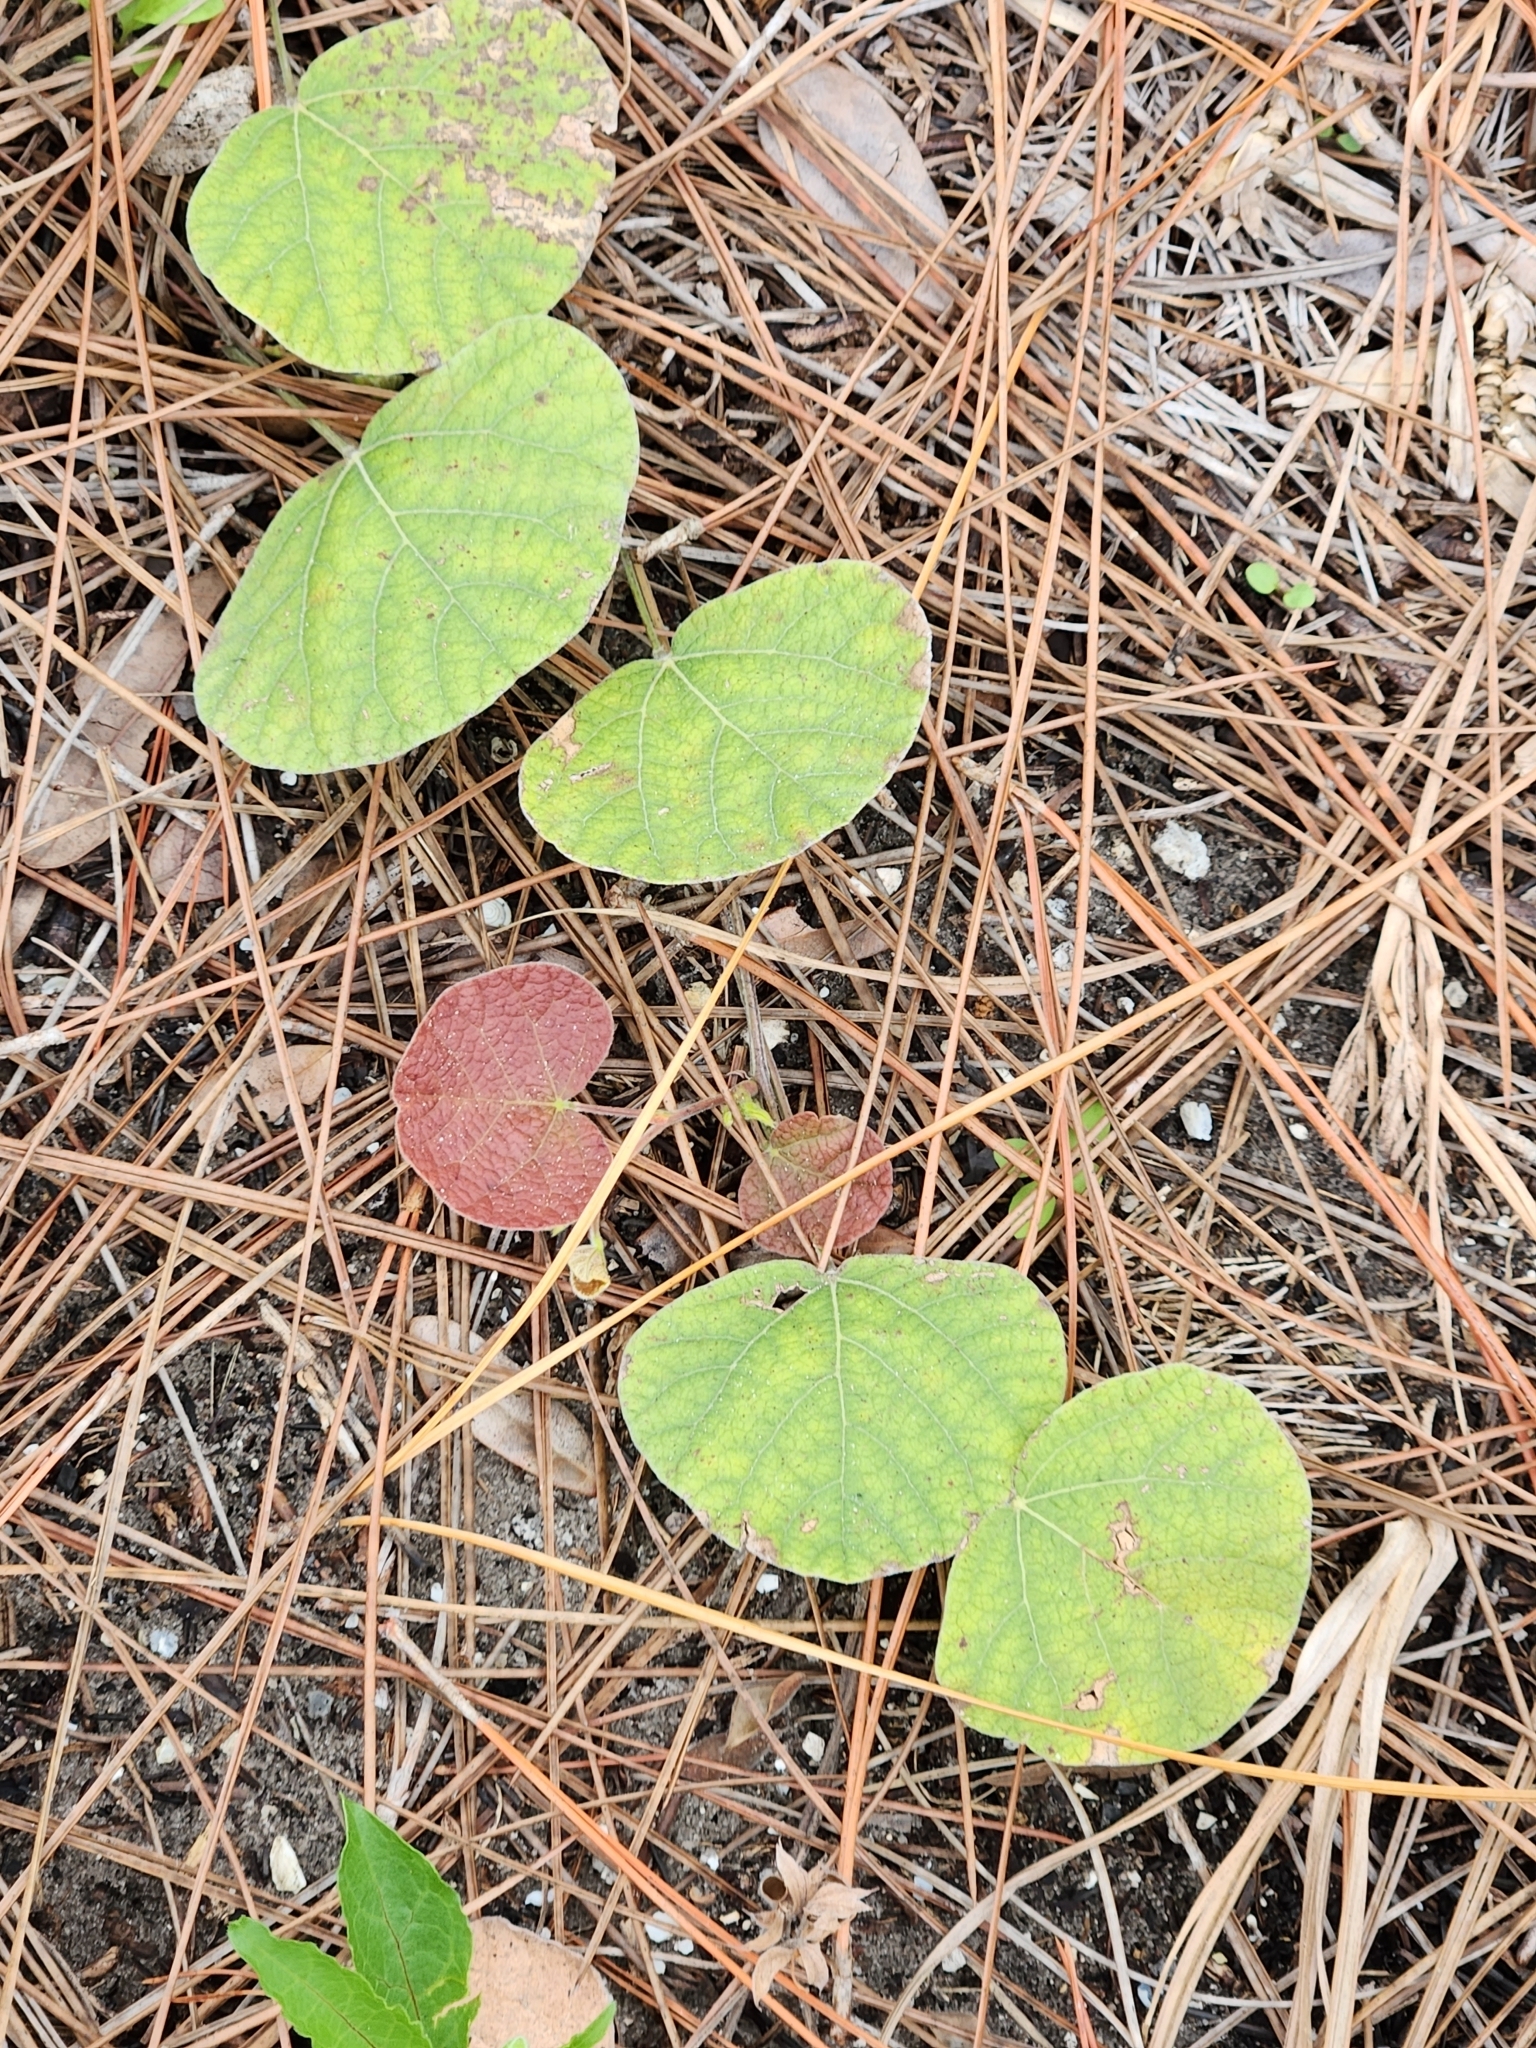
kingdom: Plantae
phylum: Tracheophyta
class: Magnoliopsida
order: Fabales
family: Fabaceae
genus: Rhynchosia
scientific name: Rhynchosia michauxii
